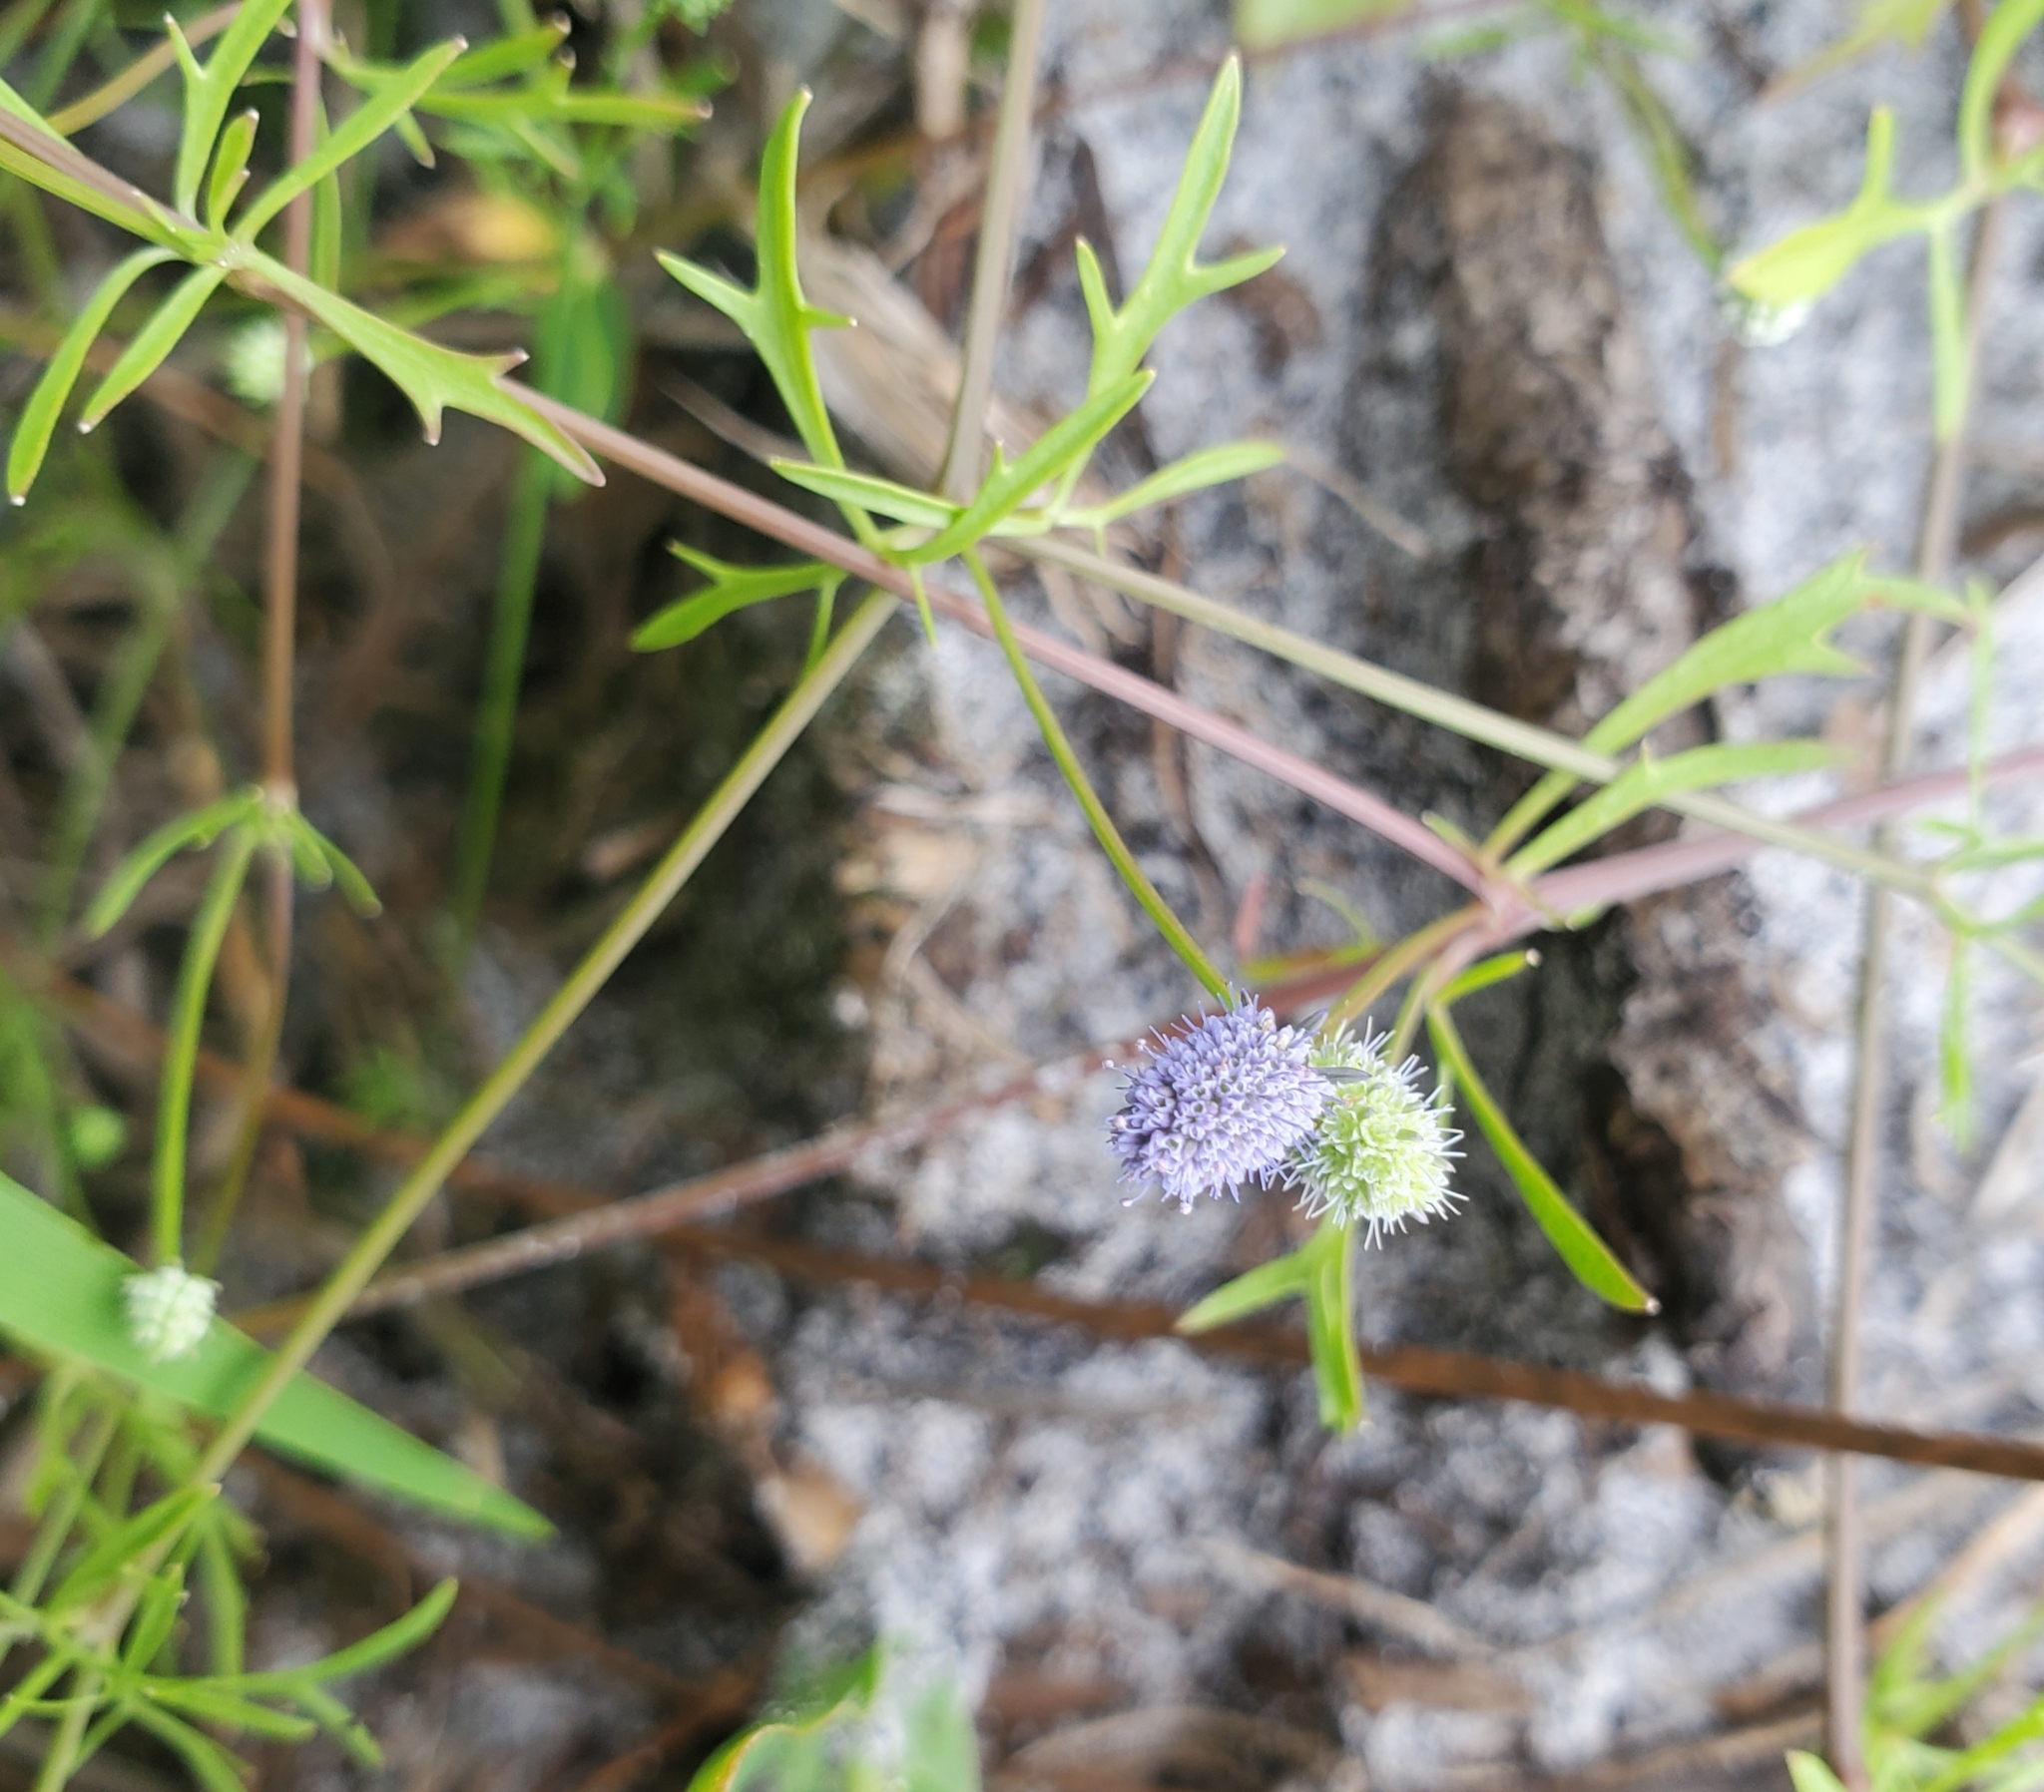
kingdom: Plantae
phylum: Tracheophyta
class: Magnoliopsida
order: Apiales
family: Apiaceae
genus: Eryngium
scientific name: Eryngium baldwinii
